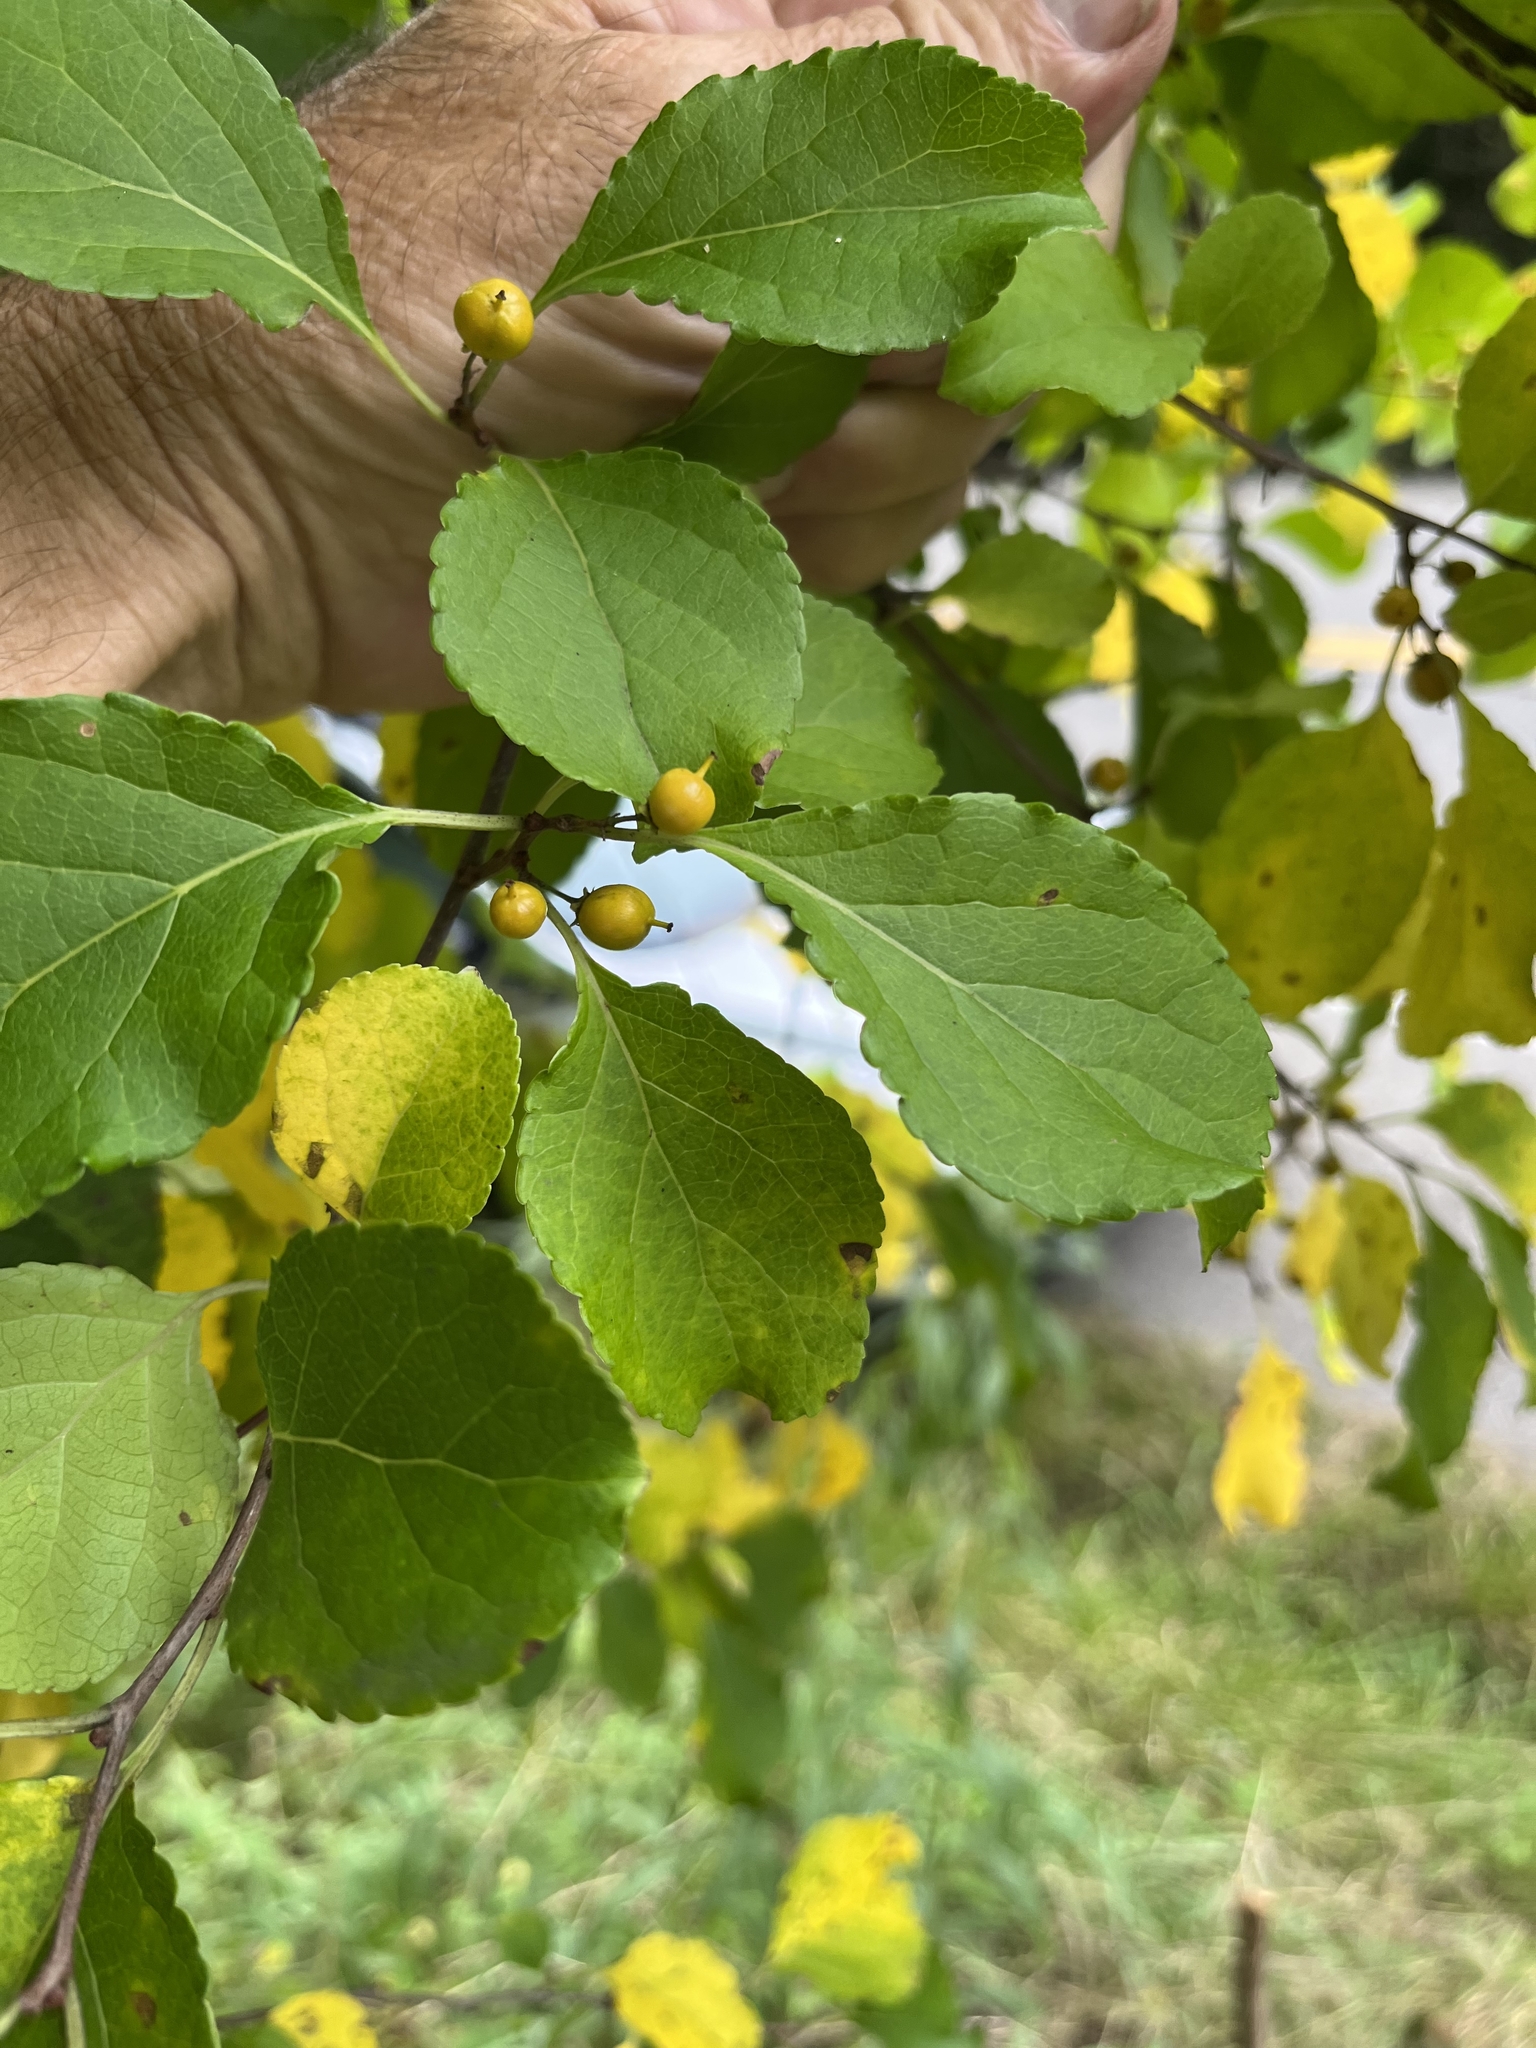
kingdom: Plantae
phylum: Tracheophyta
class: Magnoliopsida
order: Celastrales
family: Celastraceae
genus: Celastrus
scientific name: Celastrus orbiculatus
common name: Oriental bittersweet
